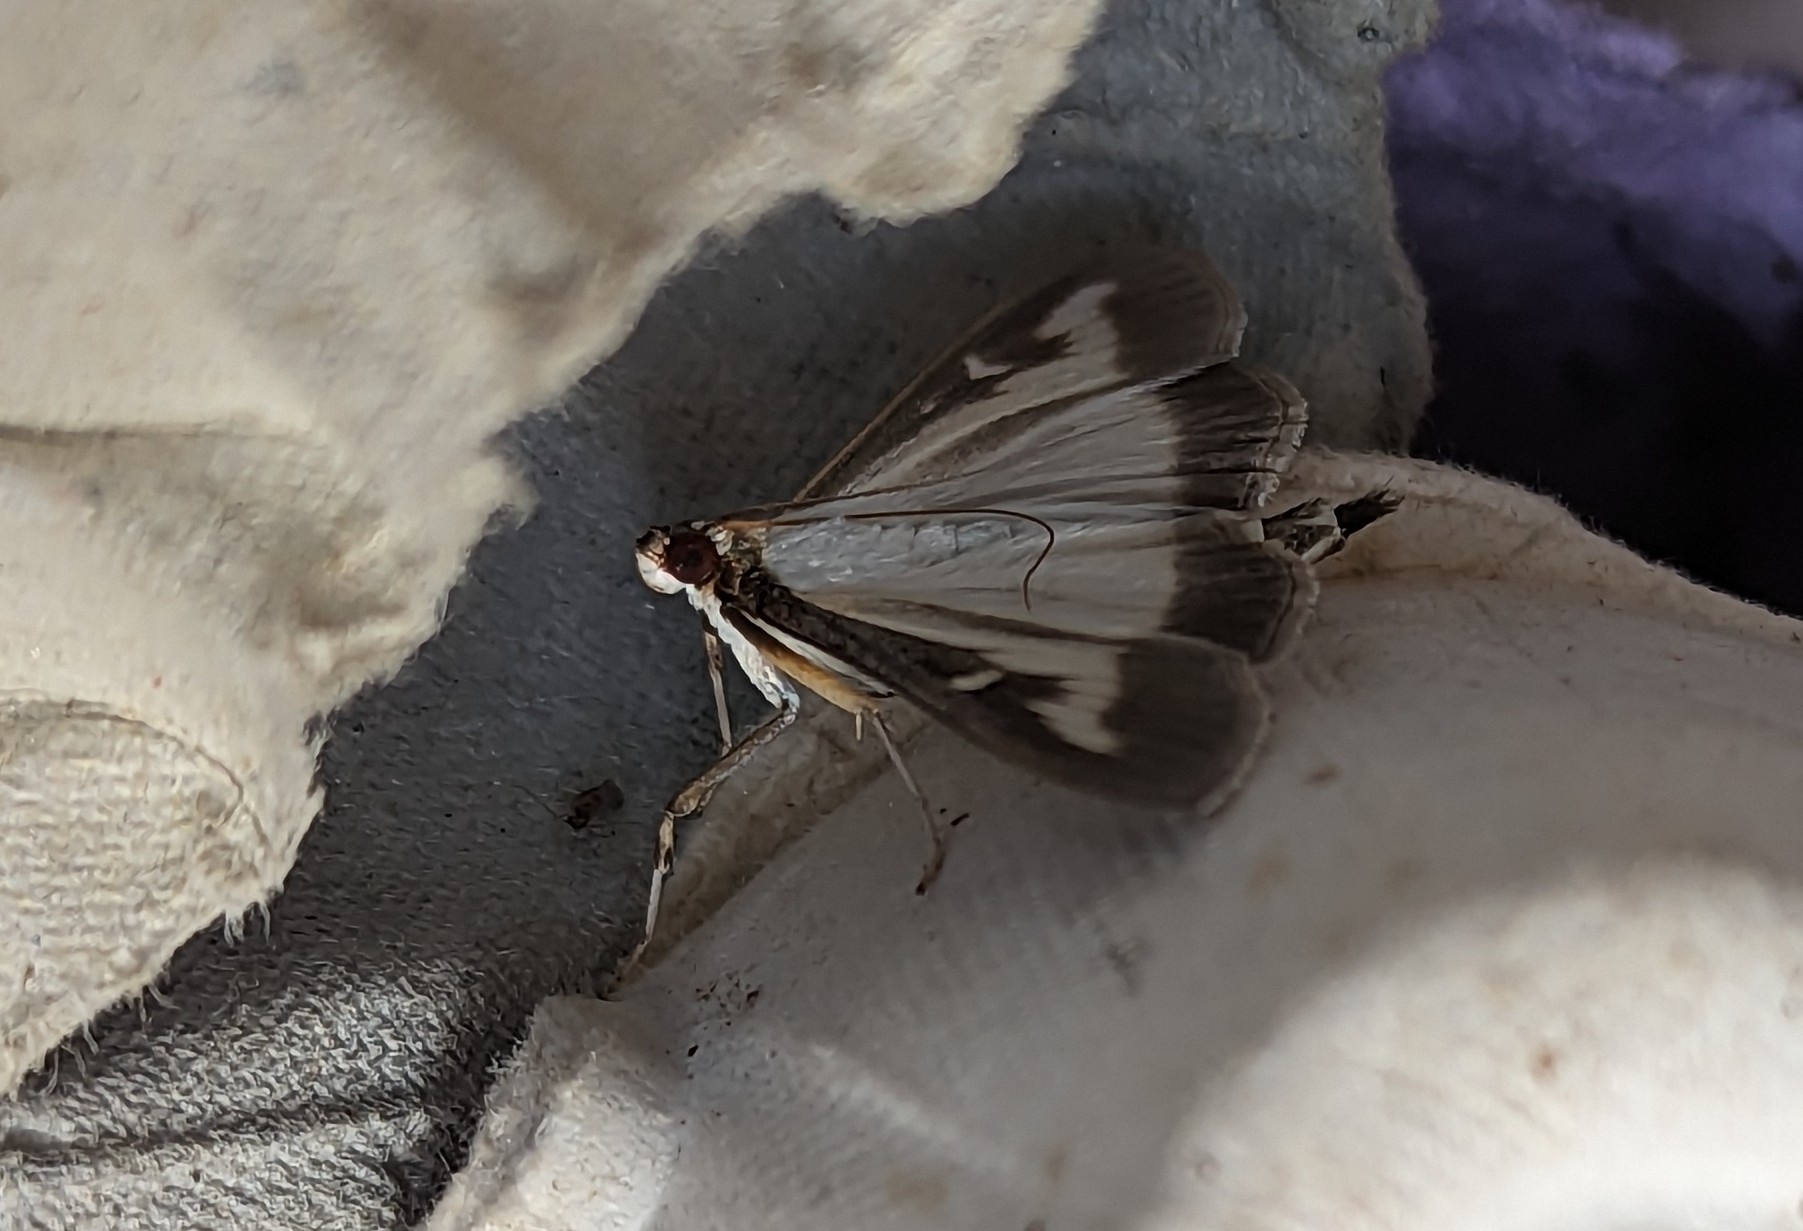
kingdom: Animalia
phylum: Arthropoda
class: Insecta
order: Lepidoptera
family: Crambidae
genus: Cydalima
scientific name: Cydalima perspectalis
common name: Box tree moth
